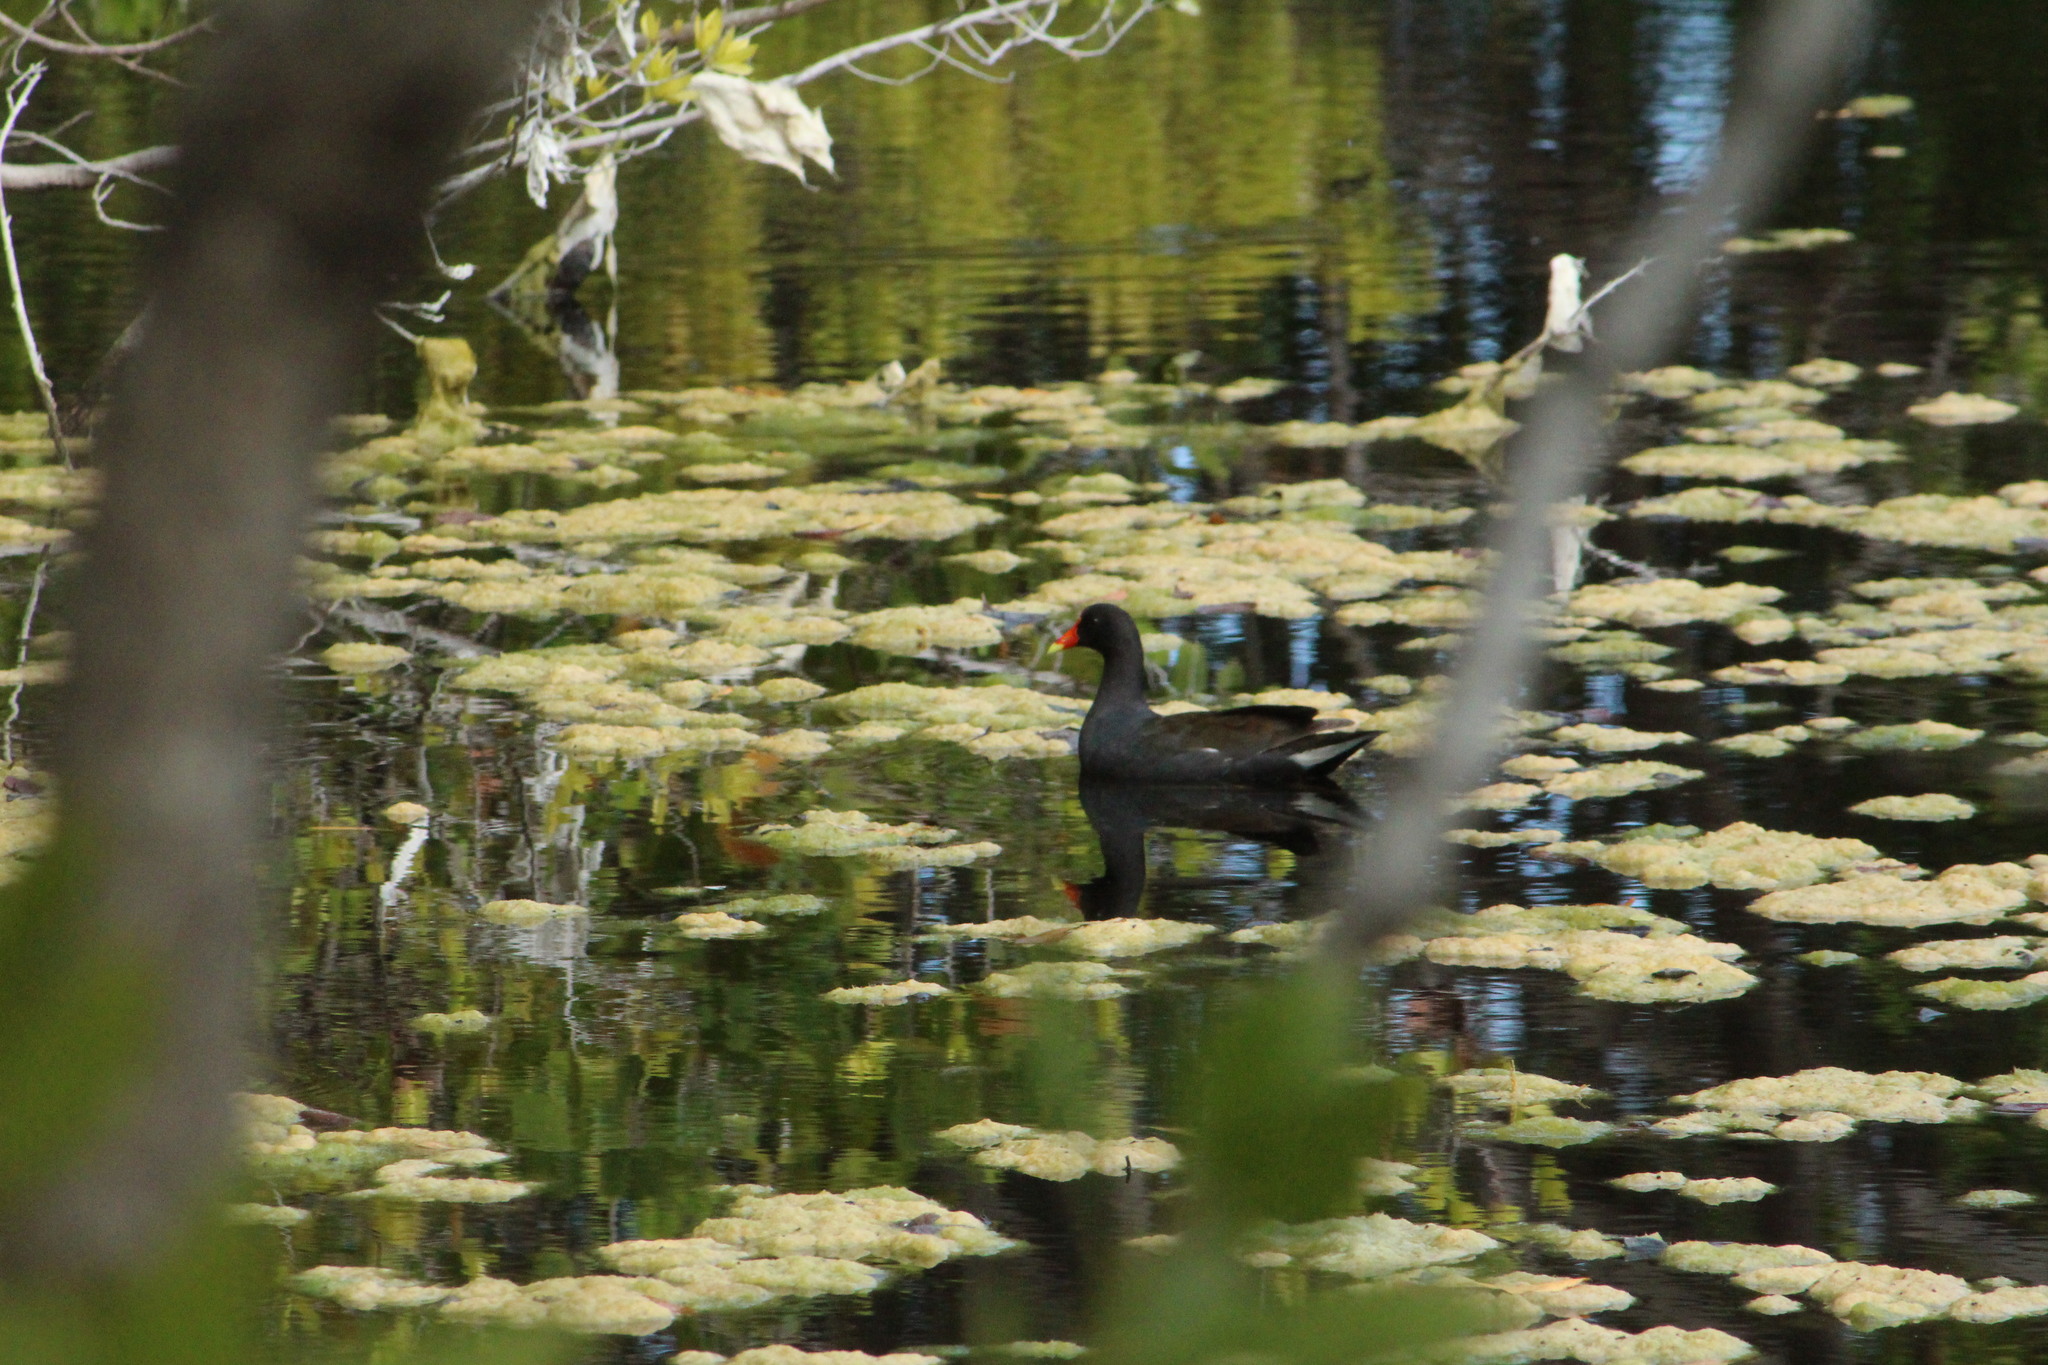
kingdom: Animalia
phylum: Chordata
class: Aves
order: Gruiformes
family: Rallidae
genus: Gallinula
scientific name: Gallinula chloropus
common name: Common moorhen
